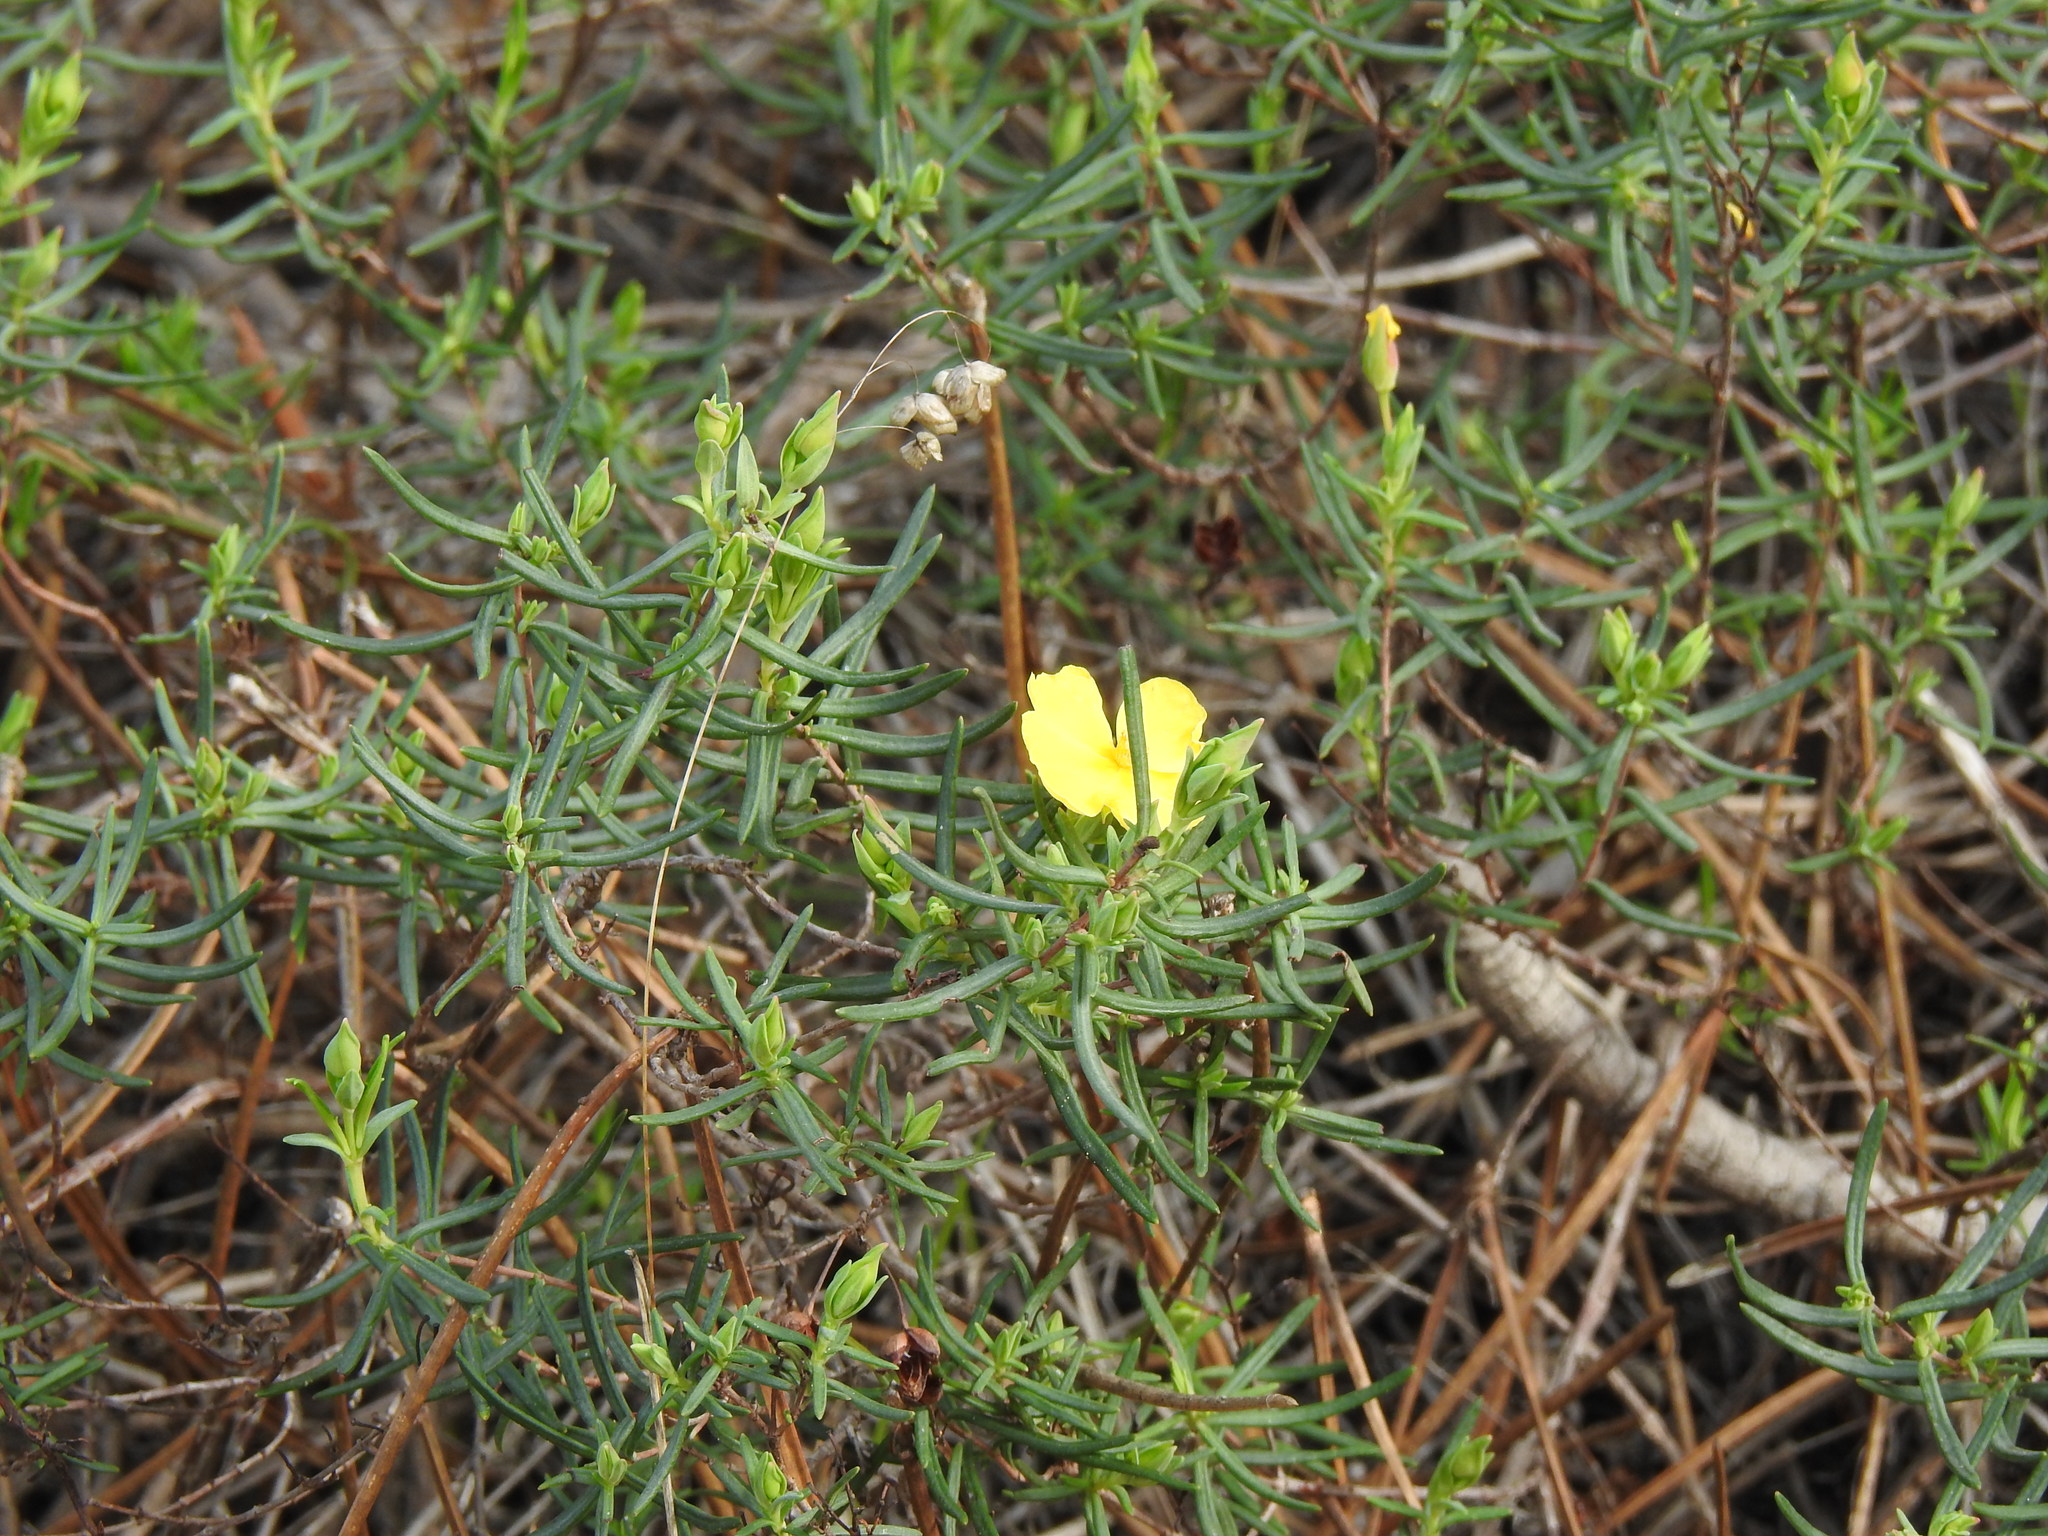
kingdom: Plantae
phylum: Tracheophyta
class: Magnoliopsida
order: Malvales
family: Cistaceae
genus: Halimium
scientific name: Halimium calycinum
